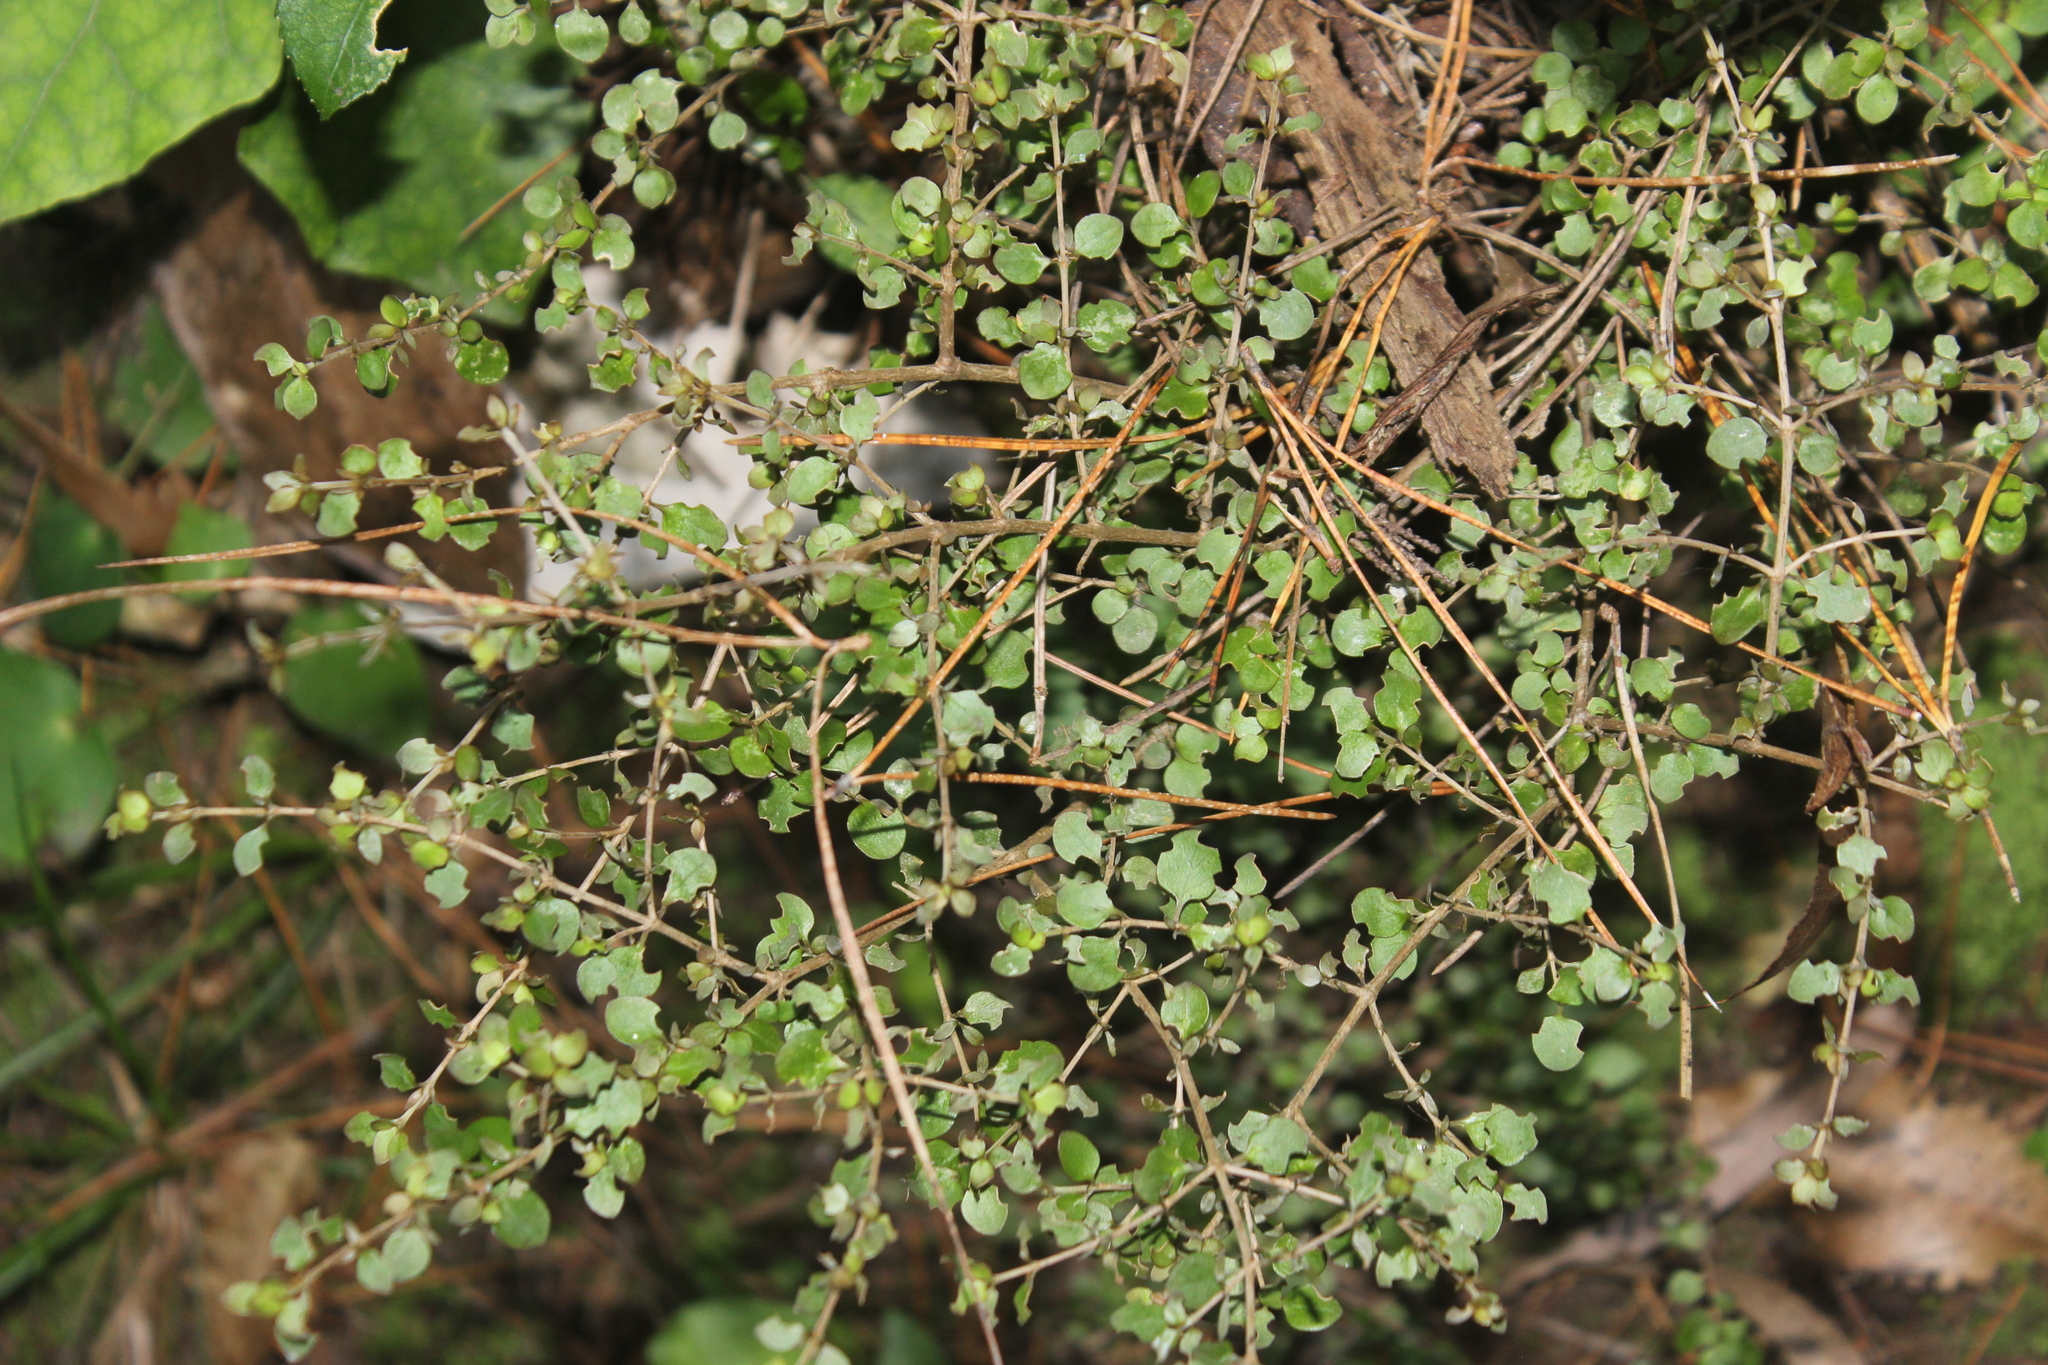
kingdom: Plantae
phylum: Tracheophyta
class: Magnoliopsida
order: Gentianales
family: Rubiaceae
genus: Coprosma
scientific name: Coprosma rhamnoides
